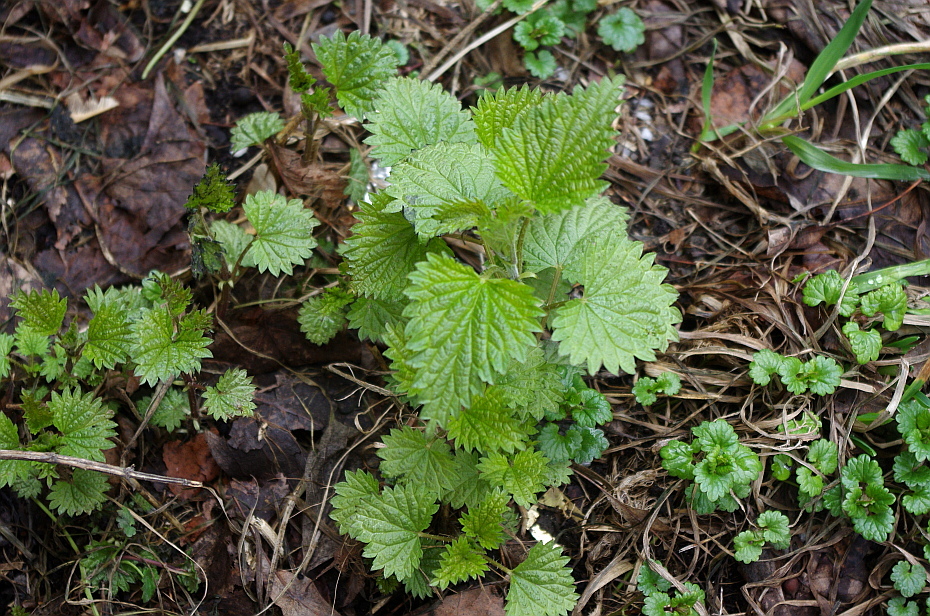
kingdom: Plantae
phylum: Tracheophyta
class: Magnoliopsida
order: Rosales
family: Urticaceae
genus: Urtica
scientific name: Urtica dioica
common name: Common nettle
